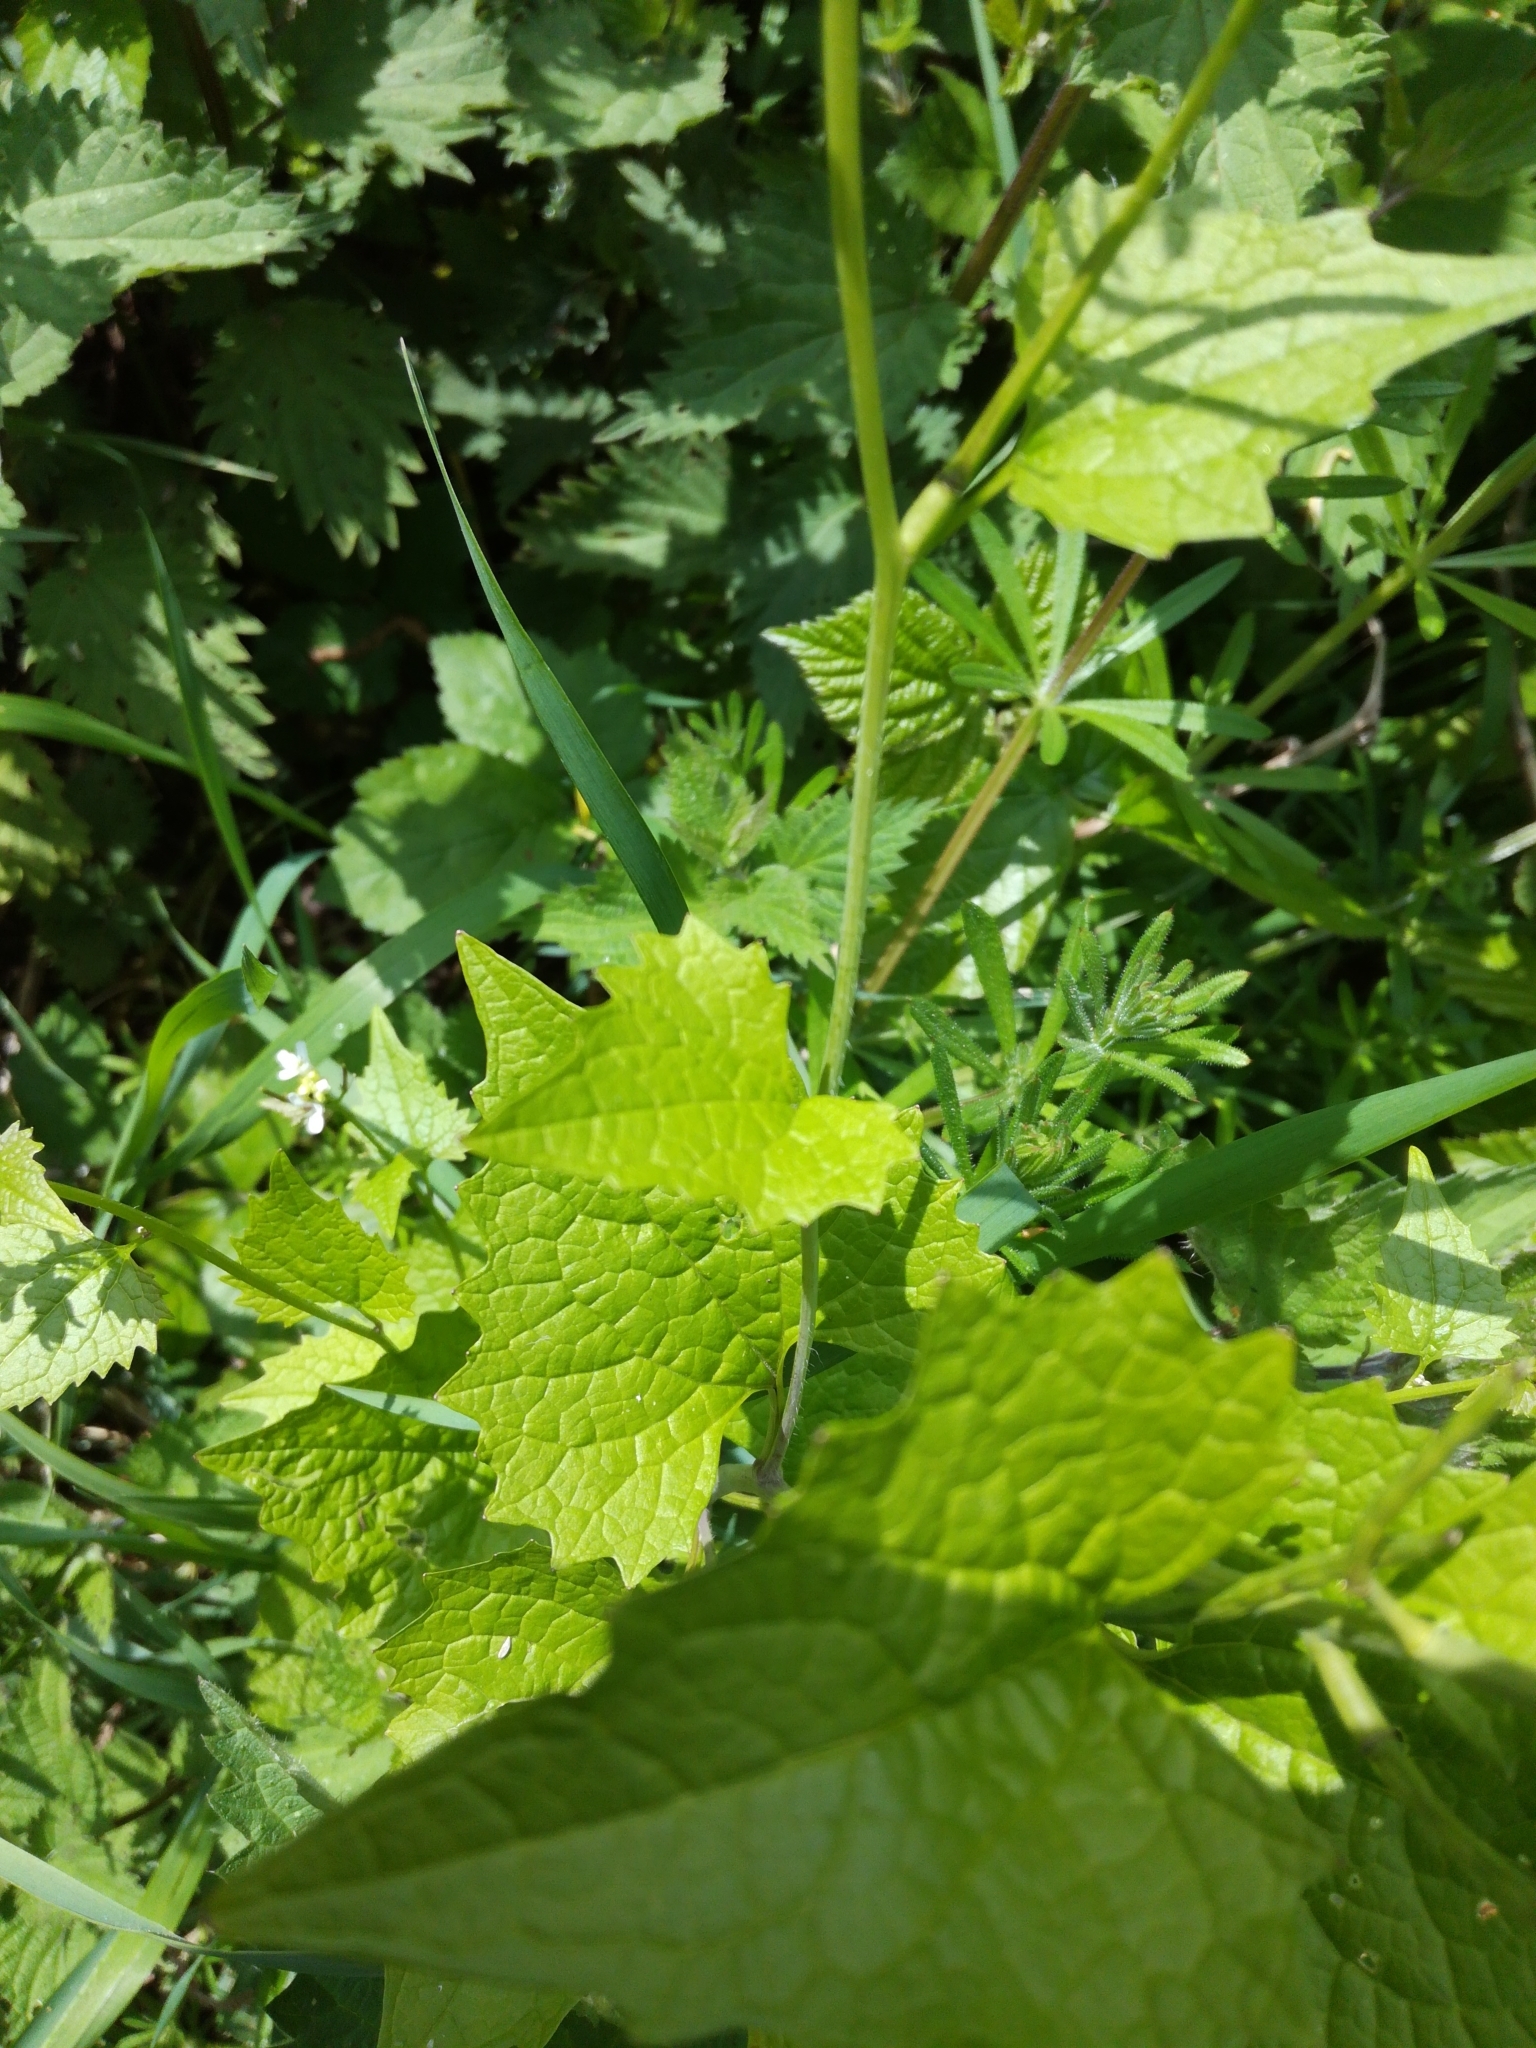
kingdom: Plantae
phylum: Tracheophyta
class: Magnoliopsida
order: Brassicales
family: Brassicaceae
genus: Alliaria
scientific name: Alliaria petiolata
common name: Garlic mustard
